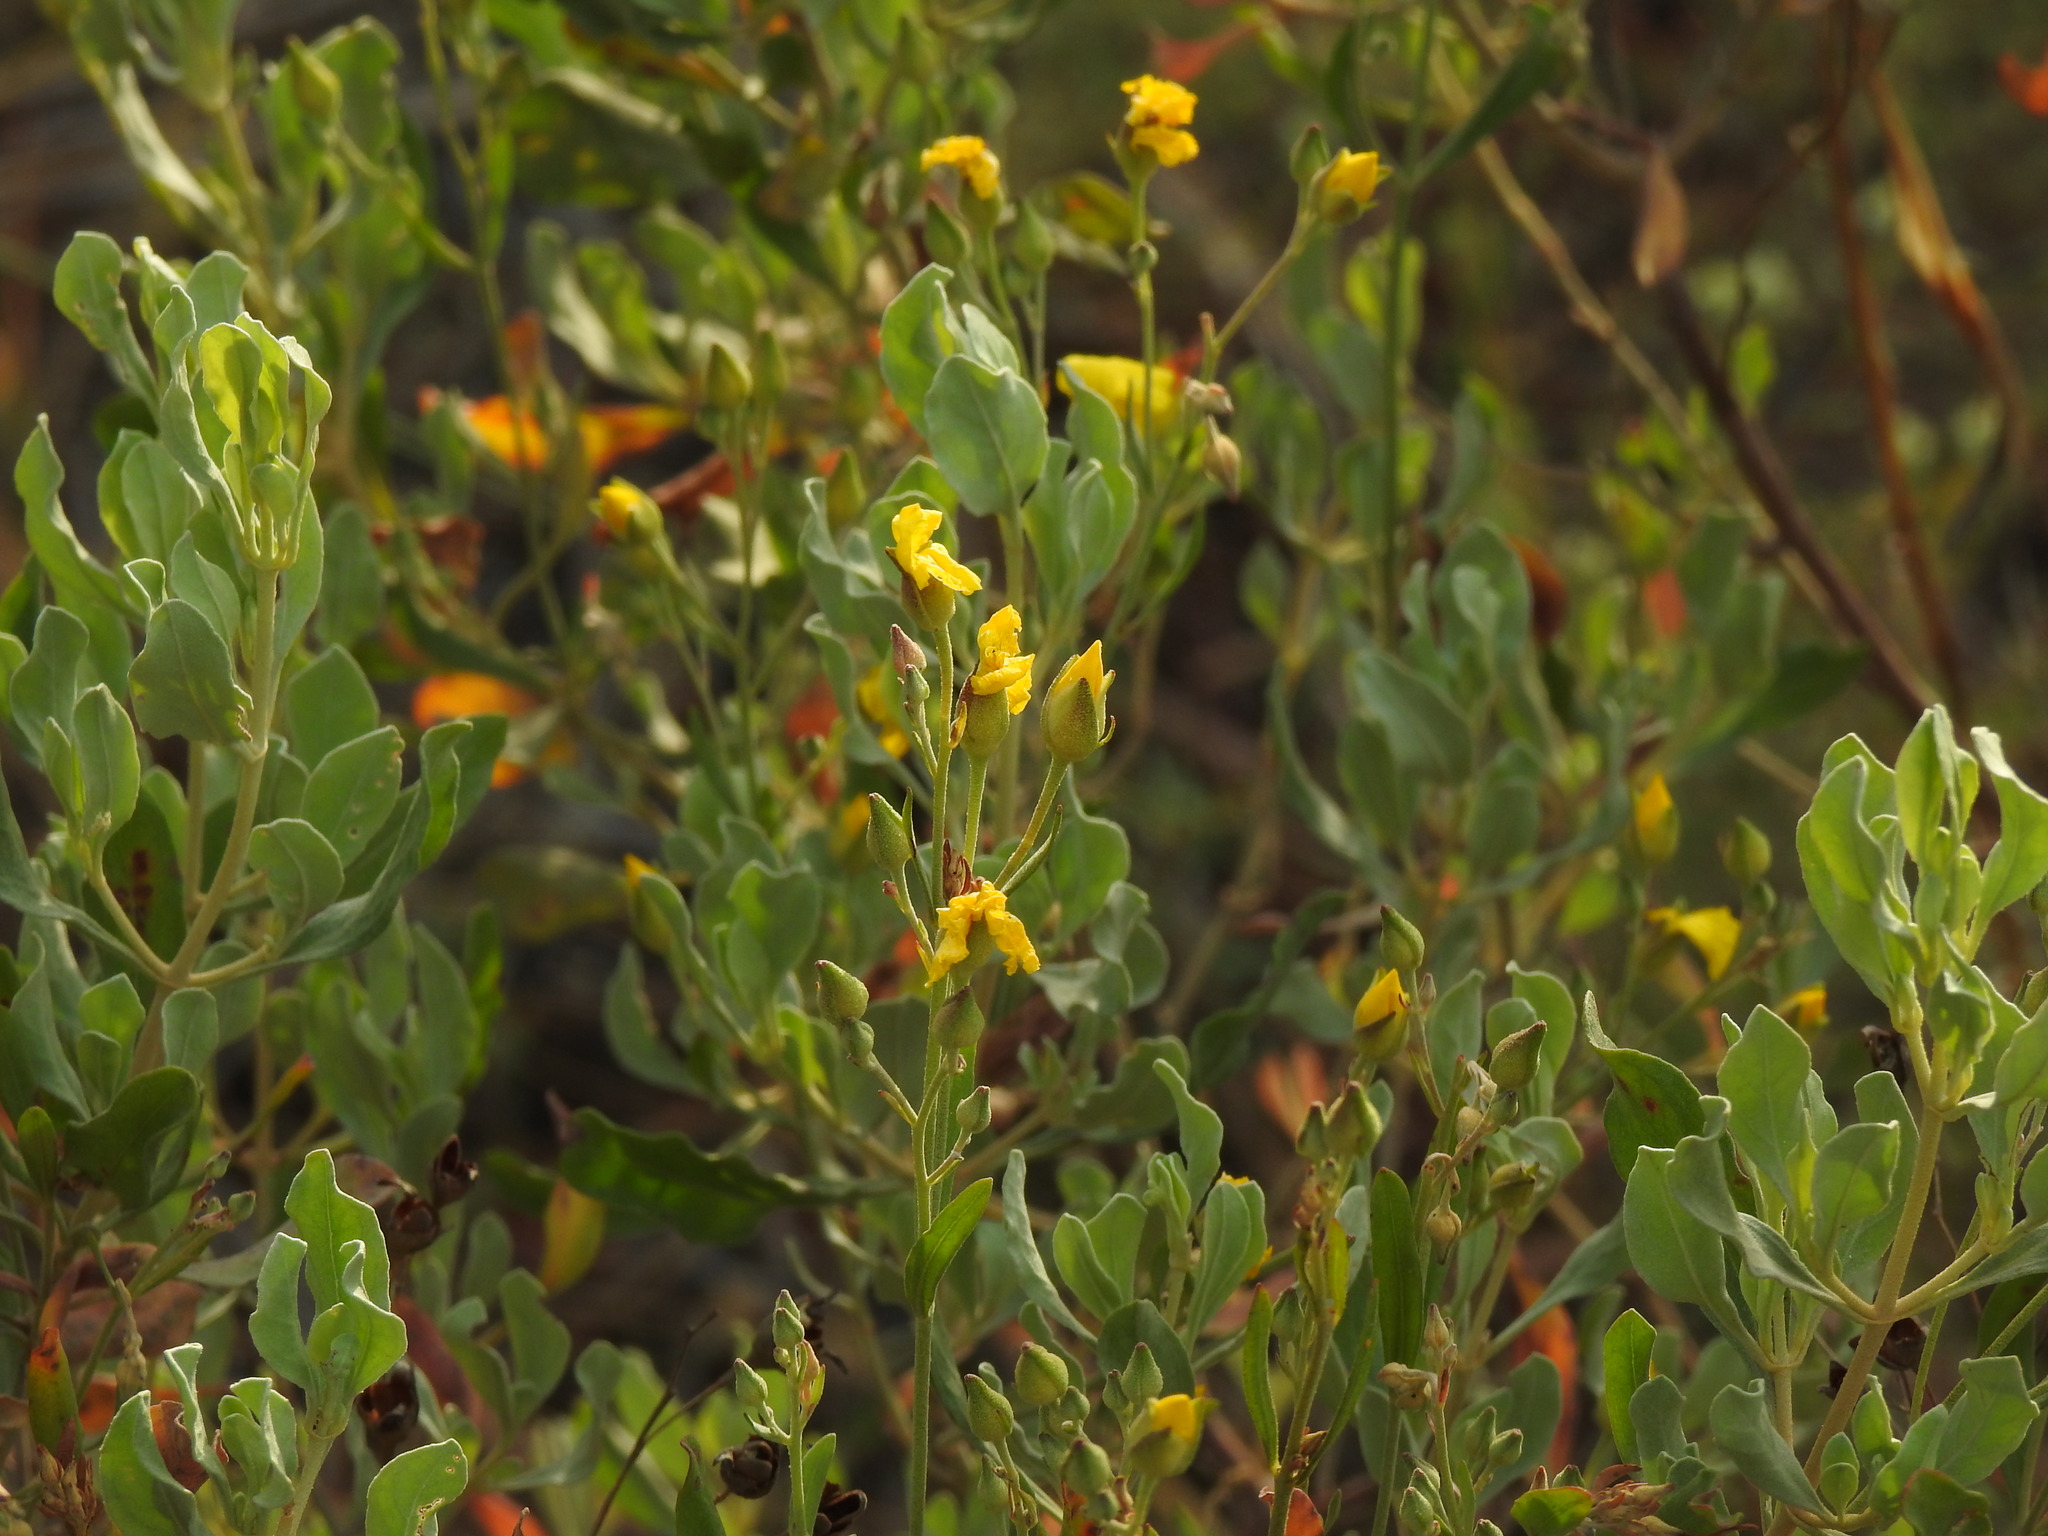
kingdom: Plantae
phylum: Tracheophyta
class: Magnoliopsida
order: Malvales
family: Cistaceae
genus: Halimium
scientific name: Halimium halimifolium
